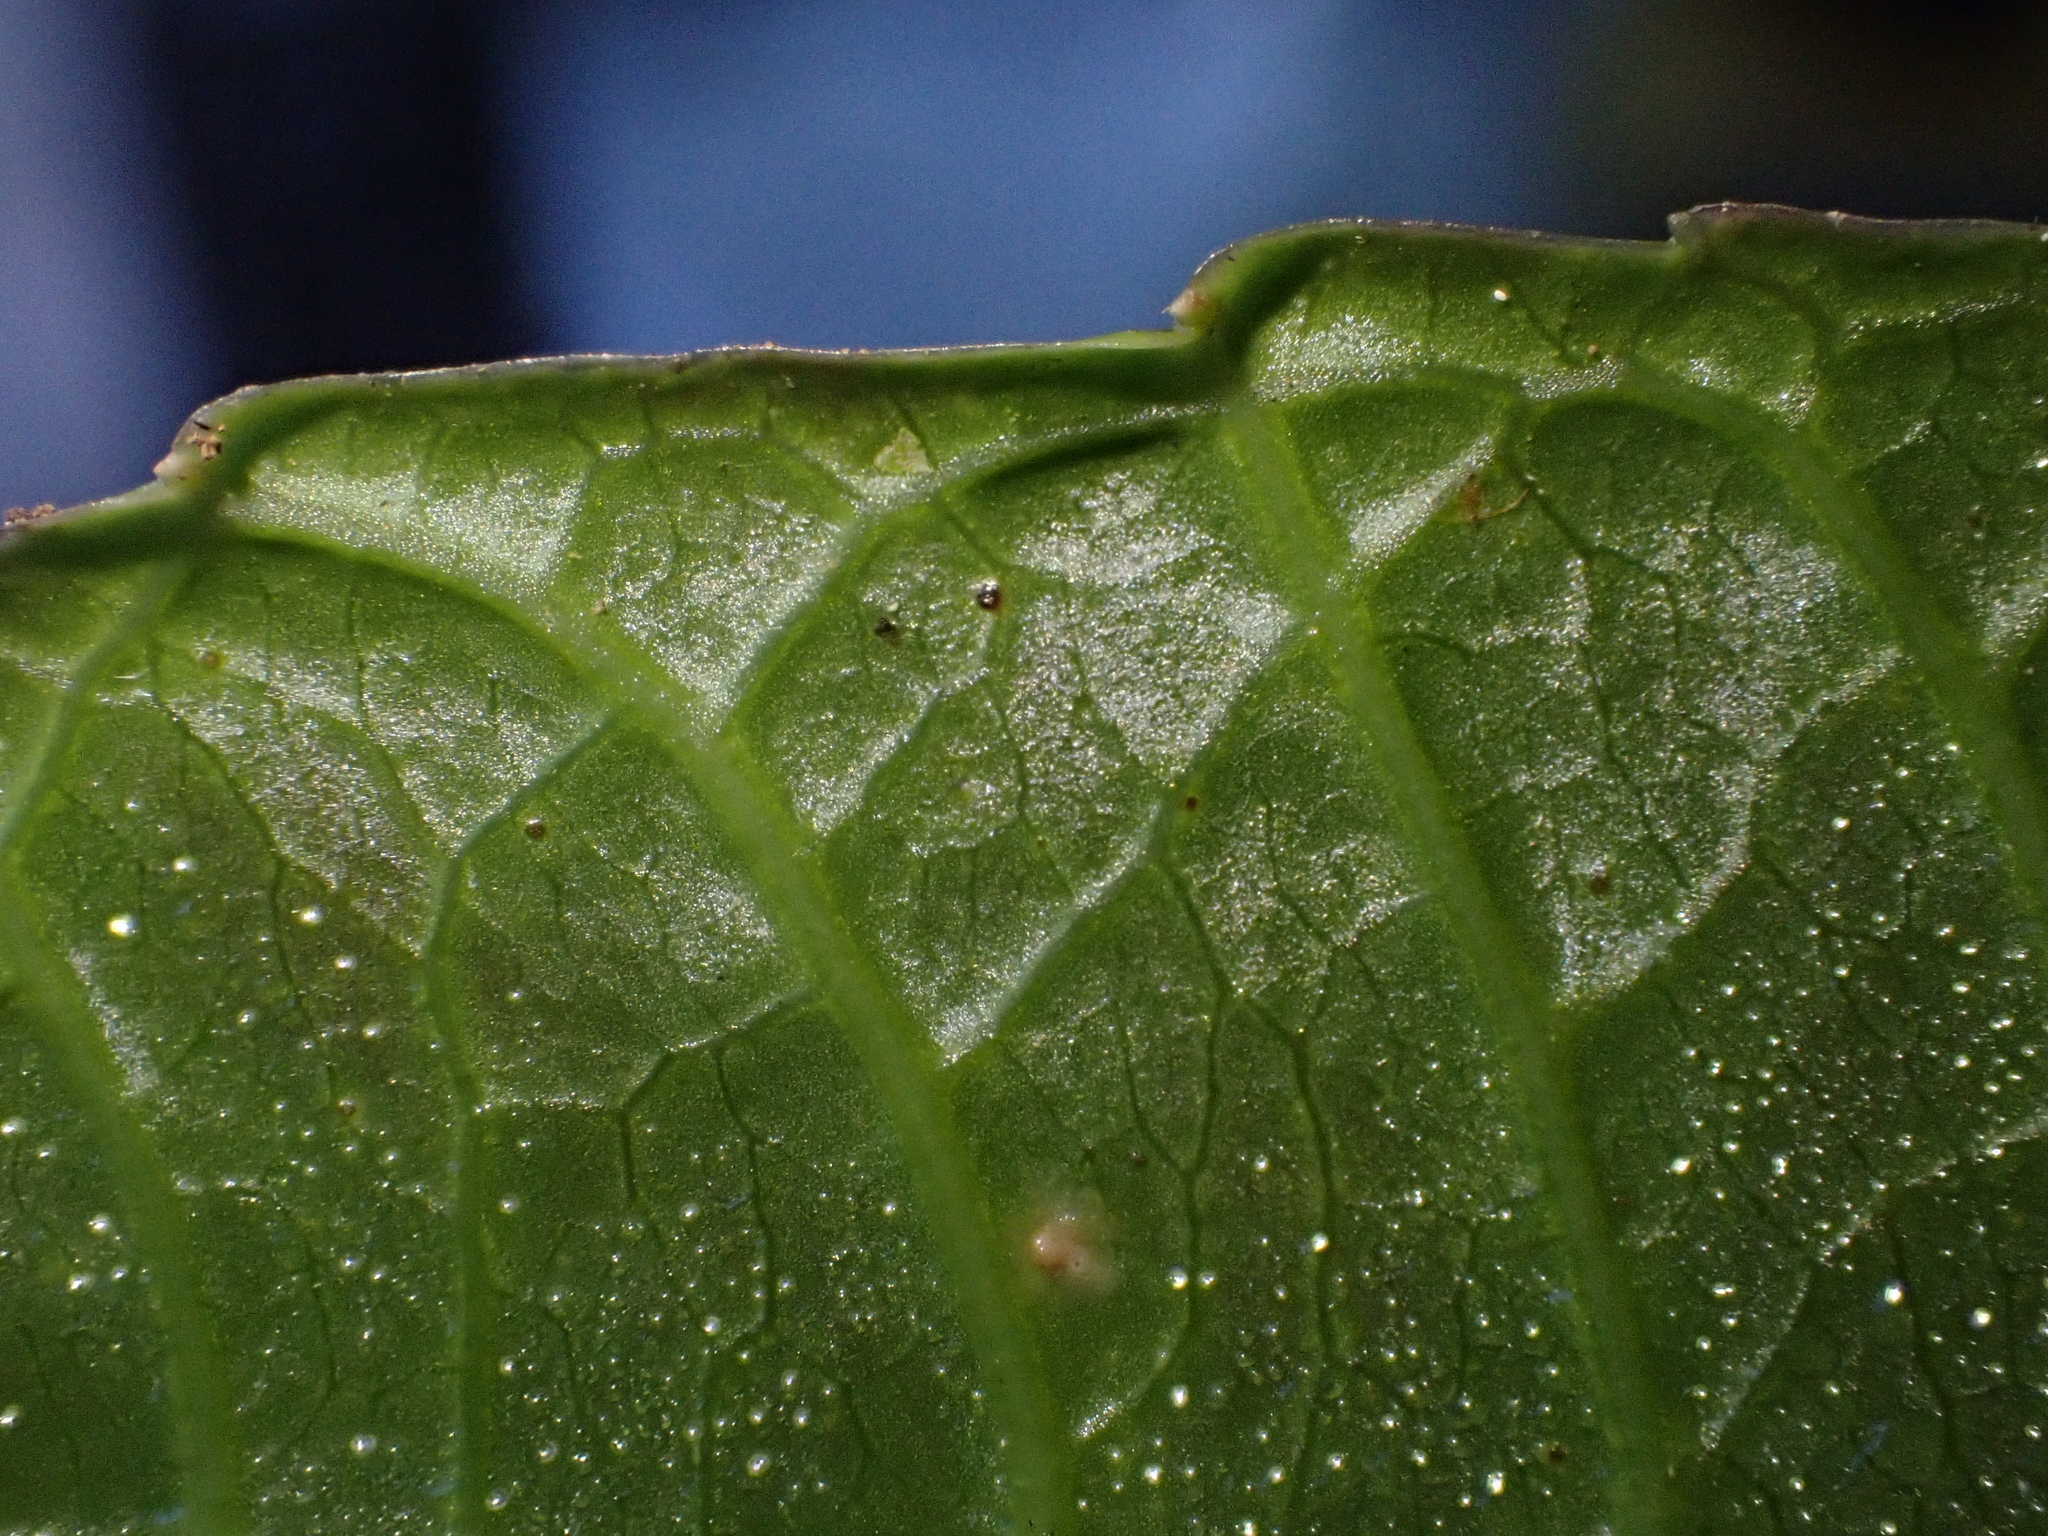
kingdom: Plantae
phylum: Tracheophyta
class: Magnoliopsida
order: Asterales
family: Campanulaceae
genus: Burmeistera
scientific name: Burmeistera crispiloba
